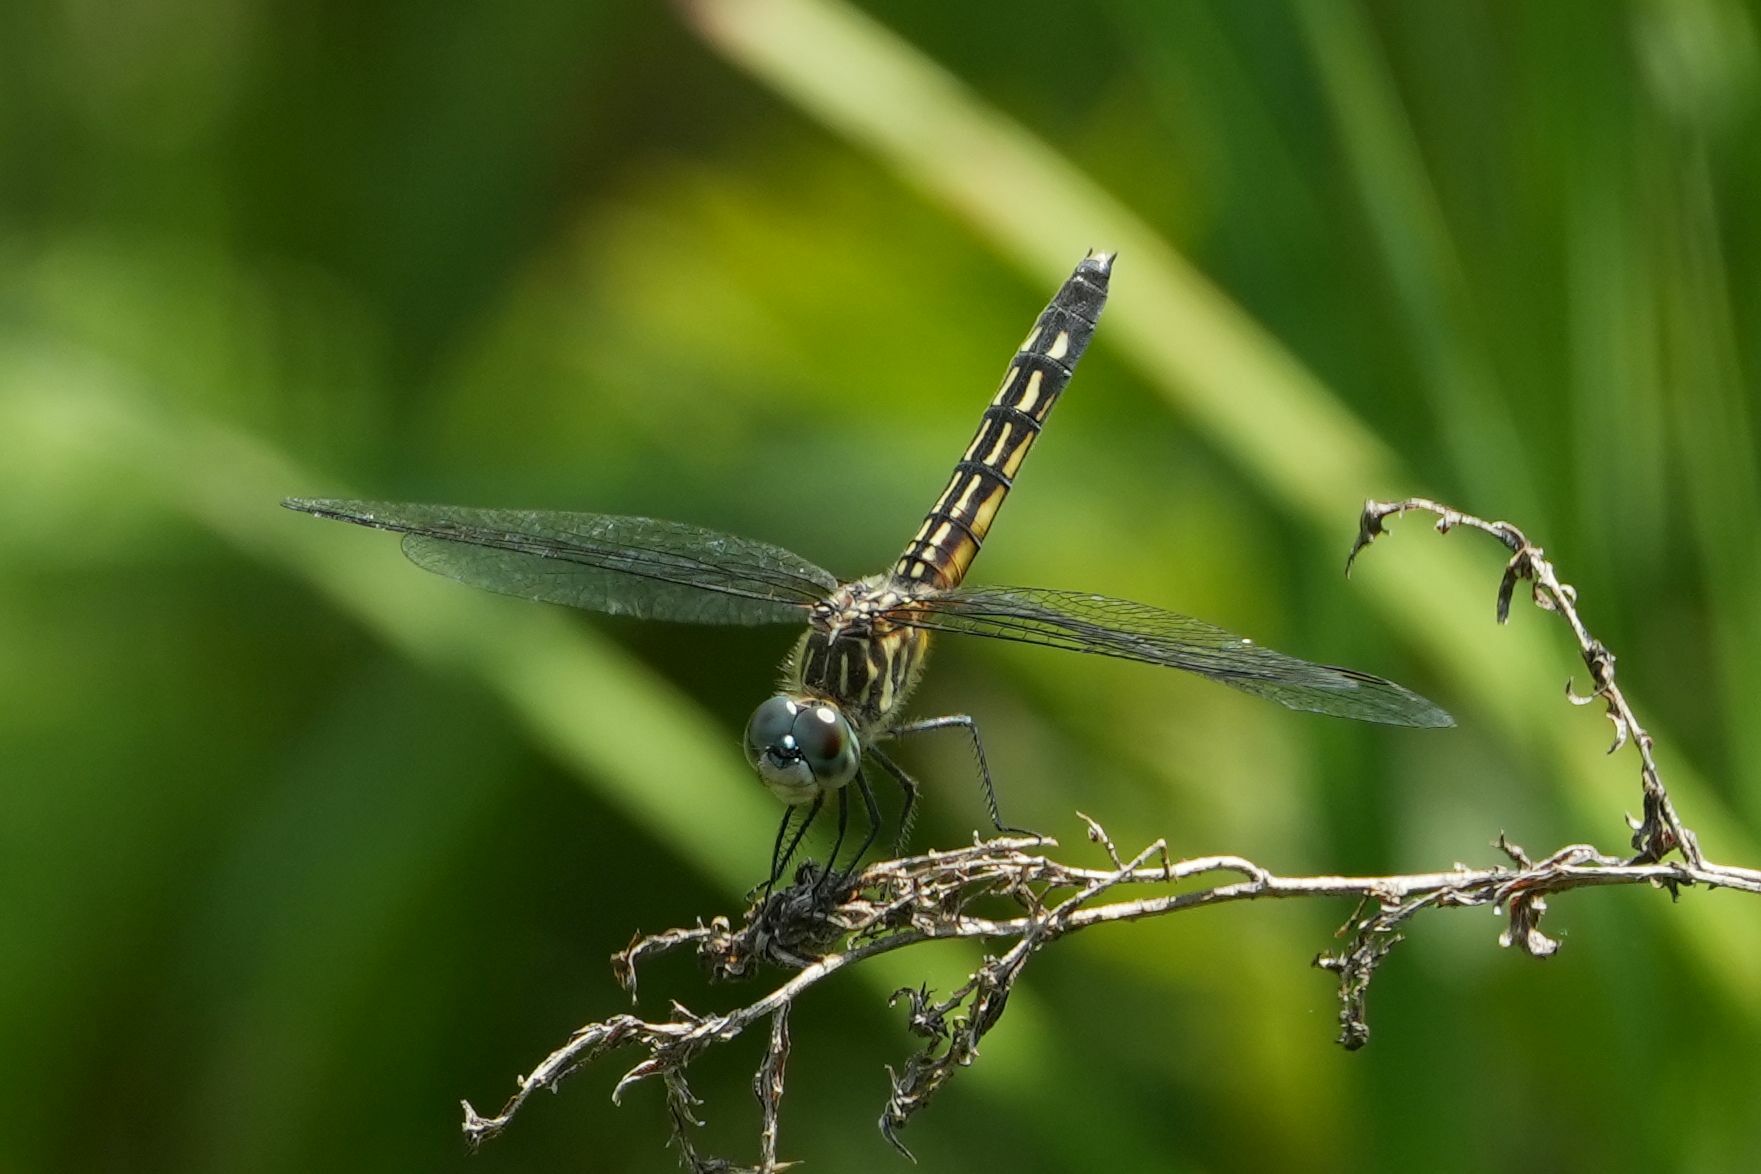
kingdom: Animalia
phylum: Arthropoda
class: Insecta
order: Odonata
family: Libellulidae
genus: Pachydiplax
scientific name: Pachydiplax longipennis
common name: Blue dasher
